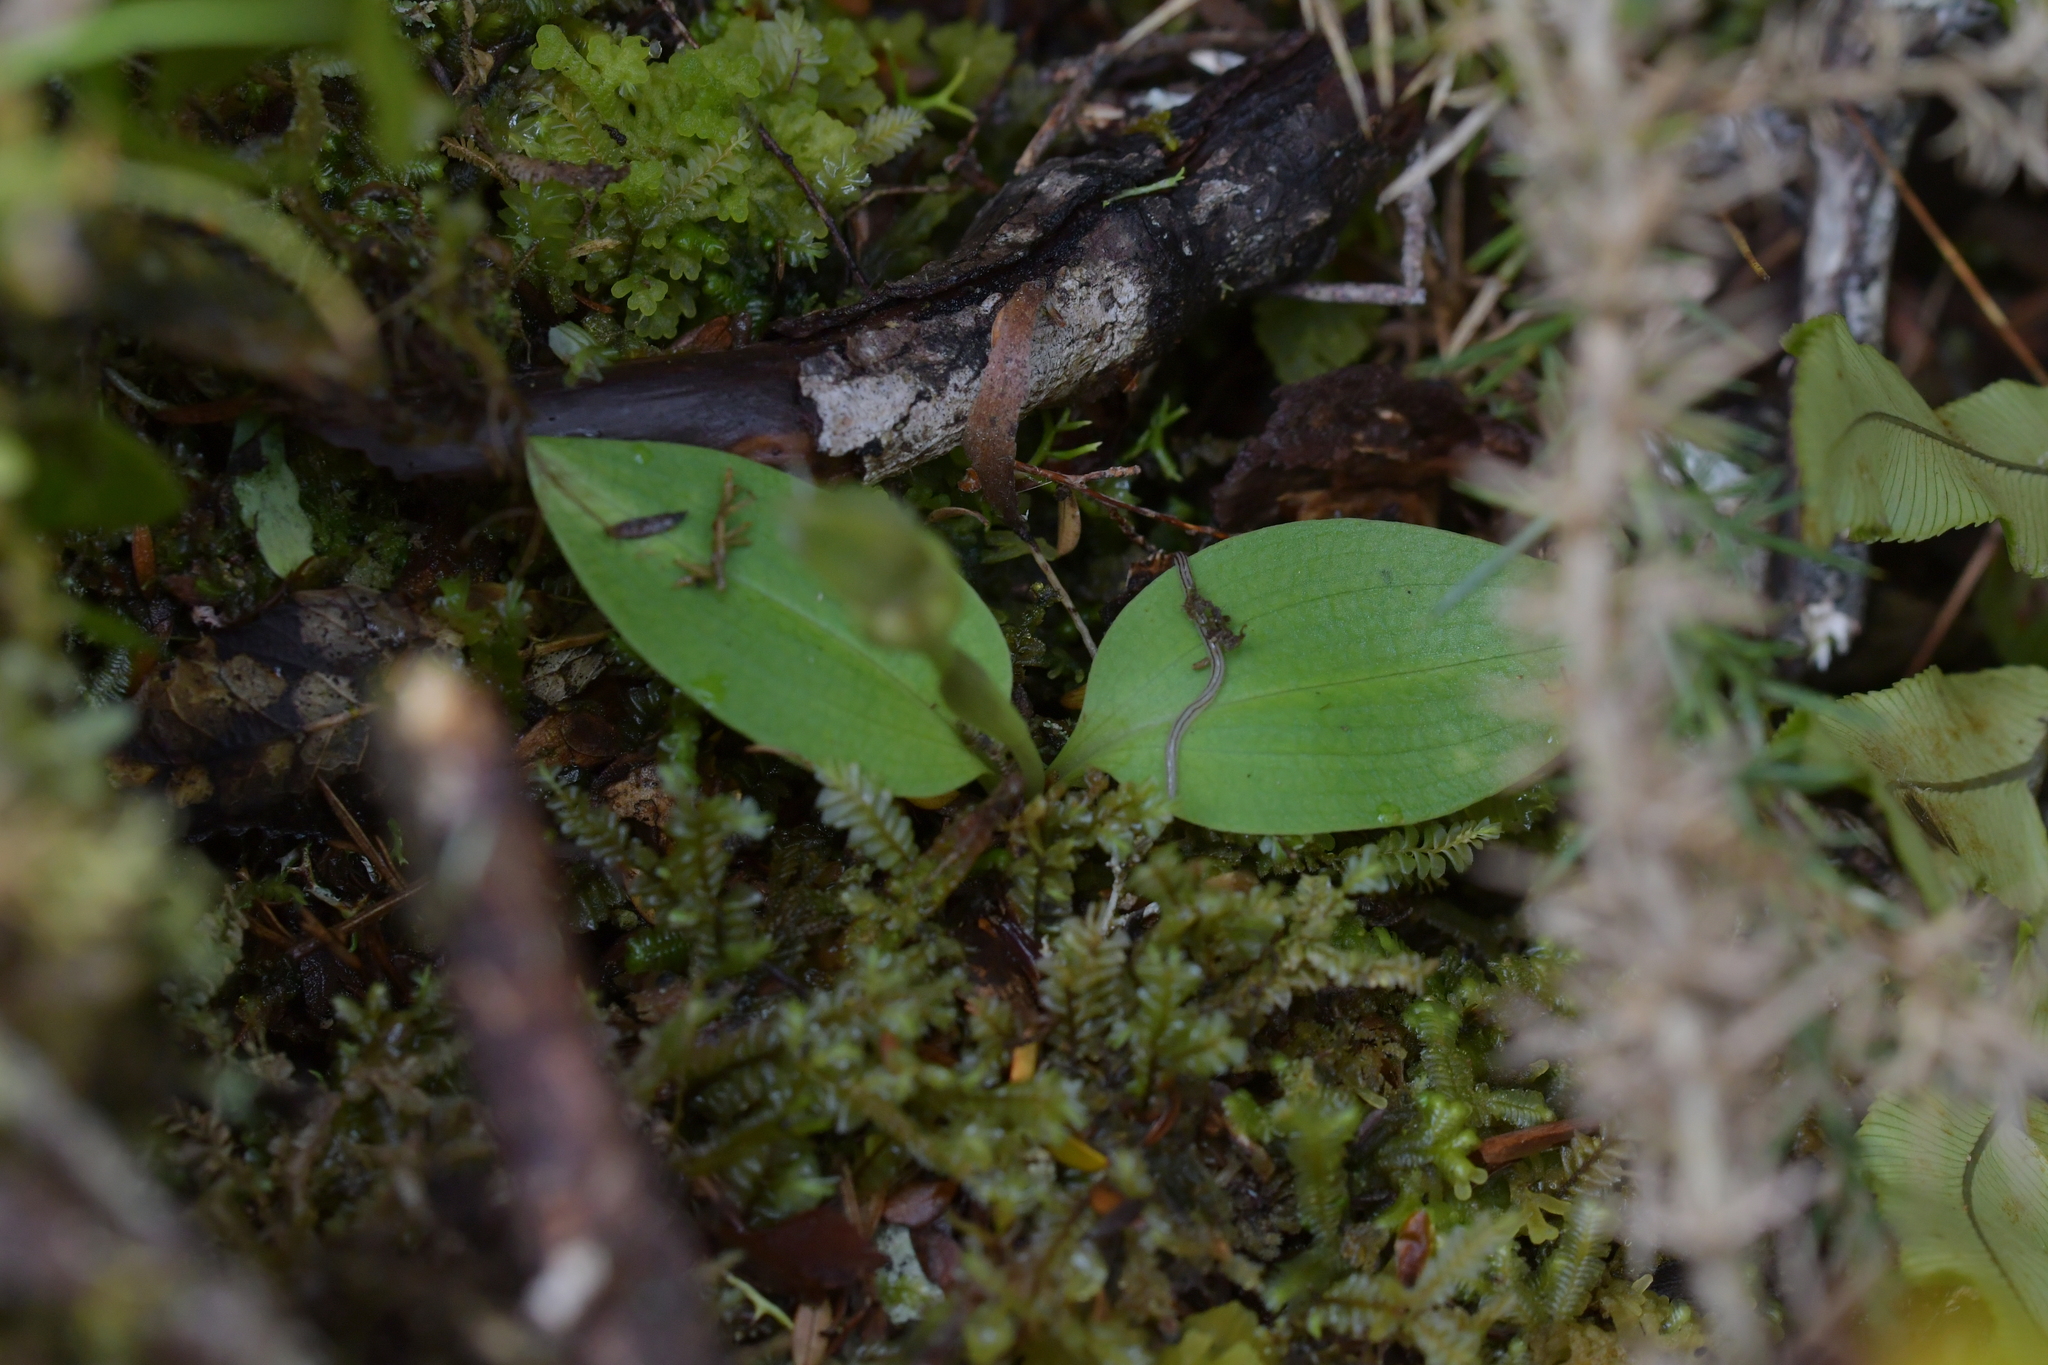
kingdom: Plantae
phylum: Tracheophyta
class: Liliopsida
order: Asparagales
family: Orchidaceae
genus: Chiloglottis
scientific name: Chiloglottis cornuta
